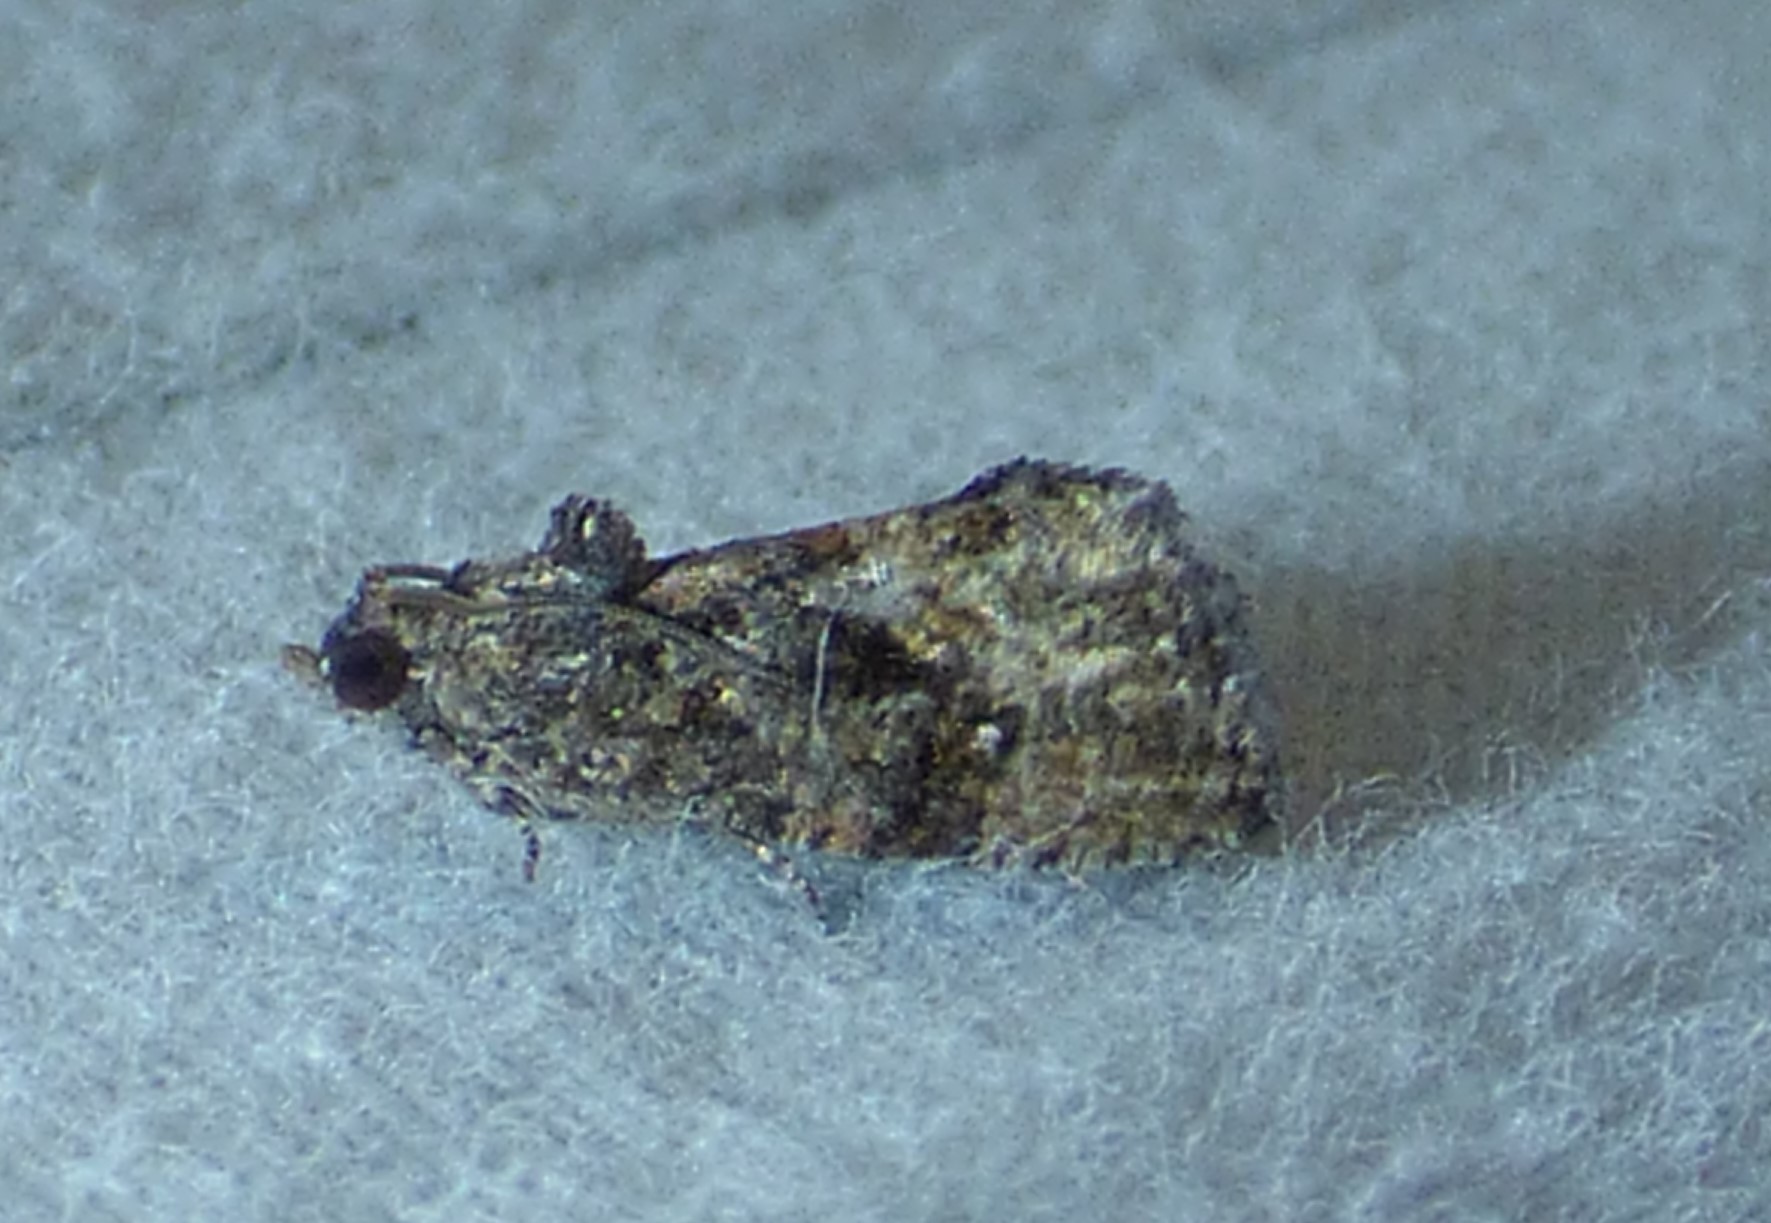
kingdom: Animalia
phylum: Arthropoda
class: Insecta
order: Lepidoptera
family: Tortricidae
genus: Gymnandrosoma
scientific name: Gymnandrosoma punctidiscanum
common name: Dotted ecdytolopha moth
